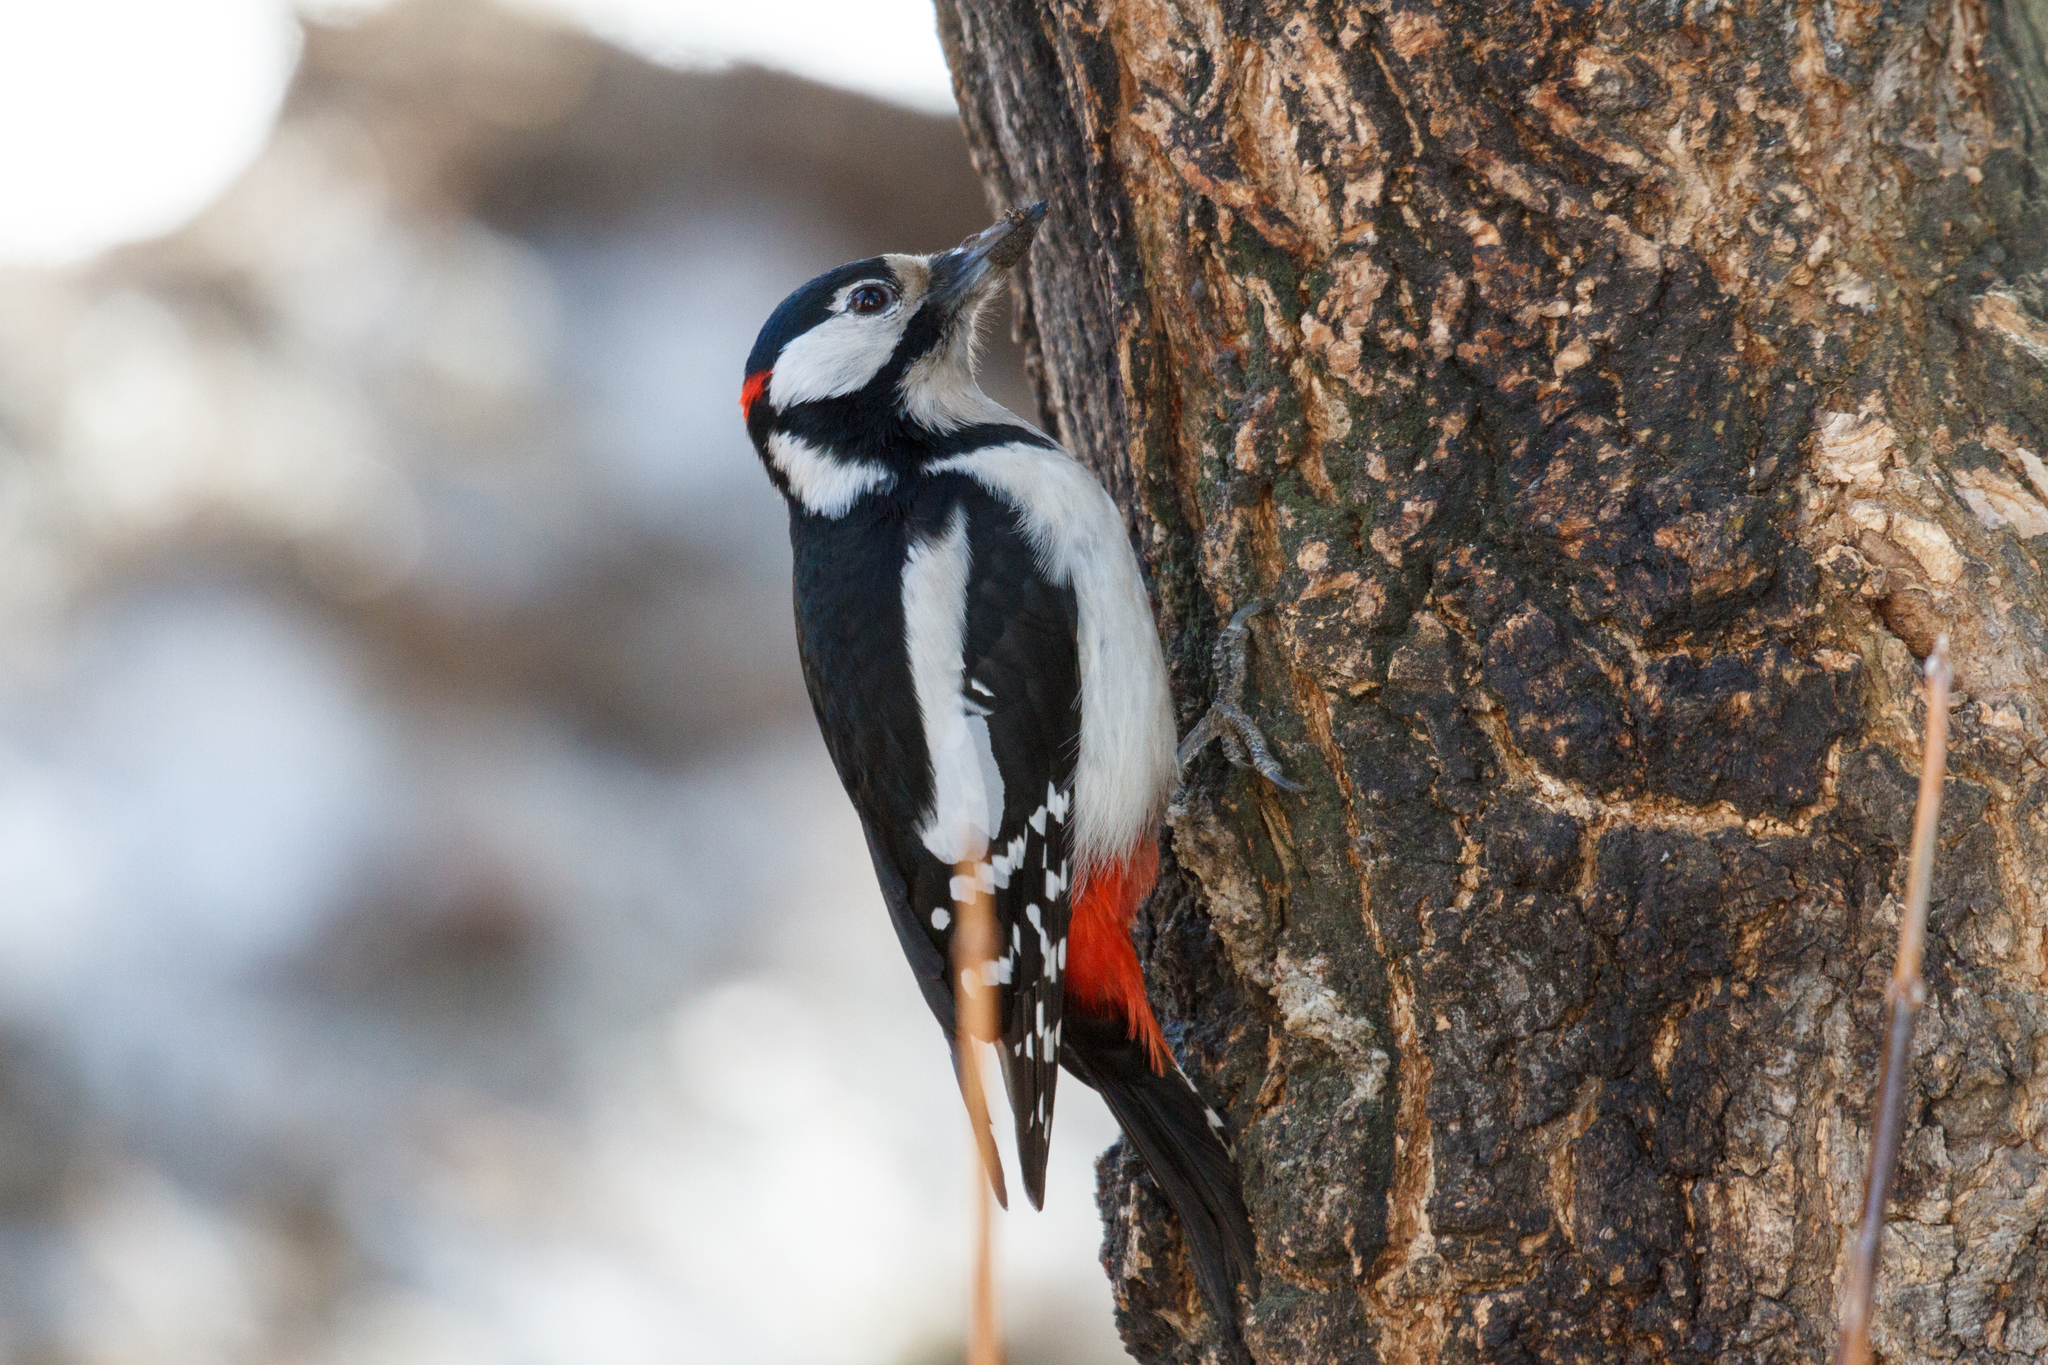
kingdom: Animalia
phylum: Chordata
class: Aves
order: Piciformes
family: Picidae
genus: Dendrocopos
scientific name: Dendrocopos major
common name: Great spotted woodpecker
